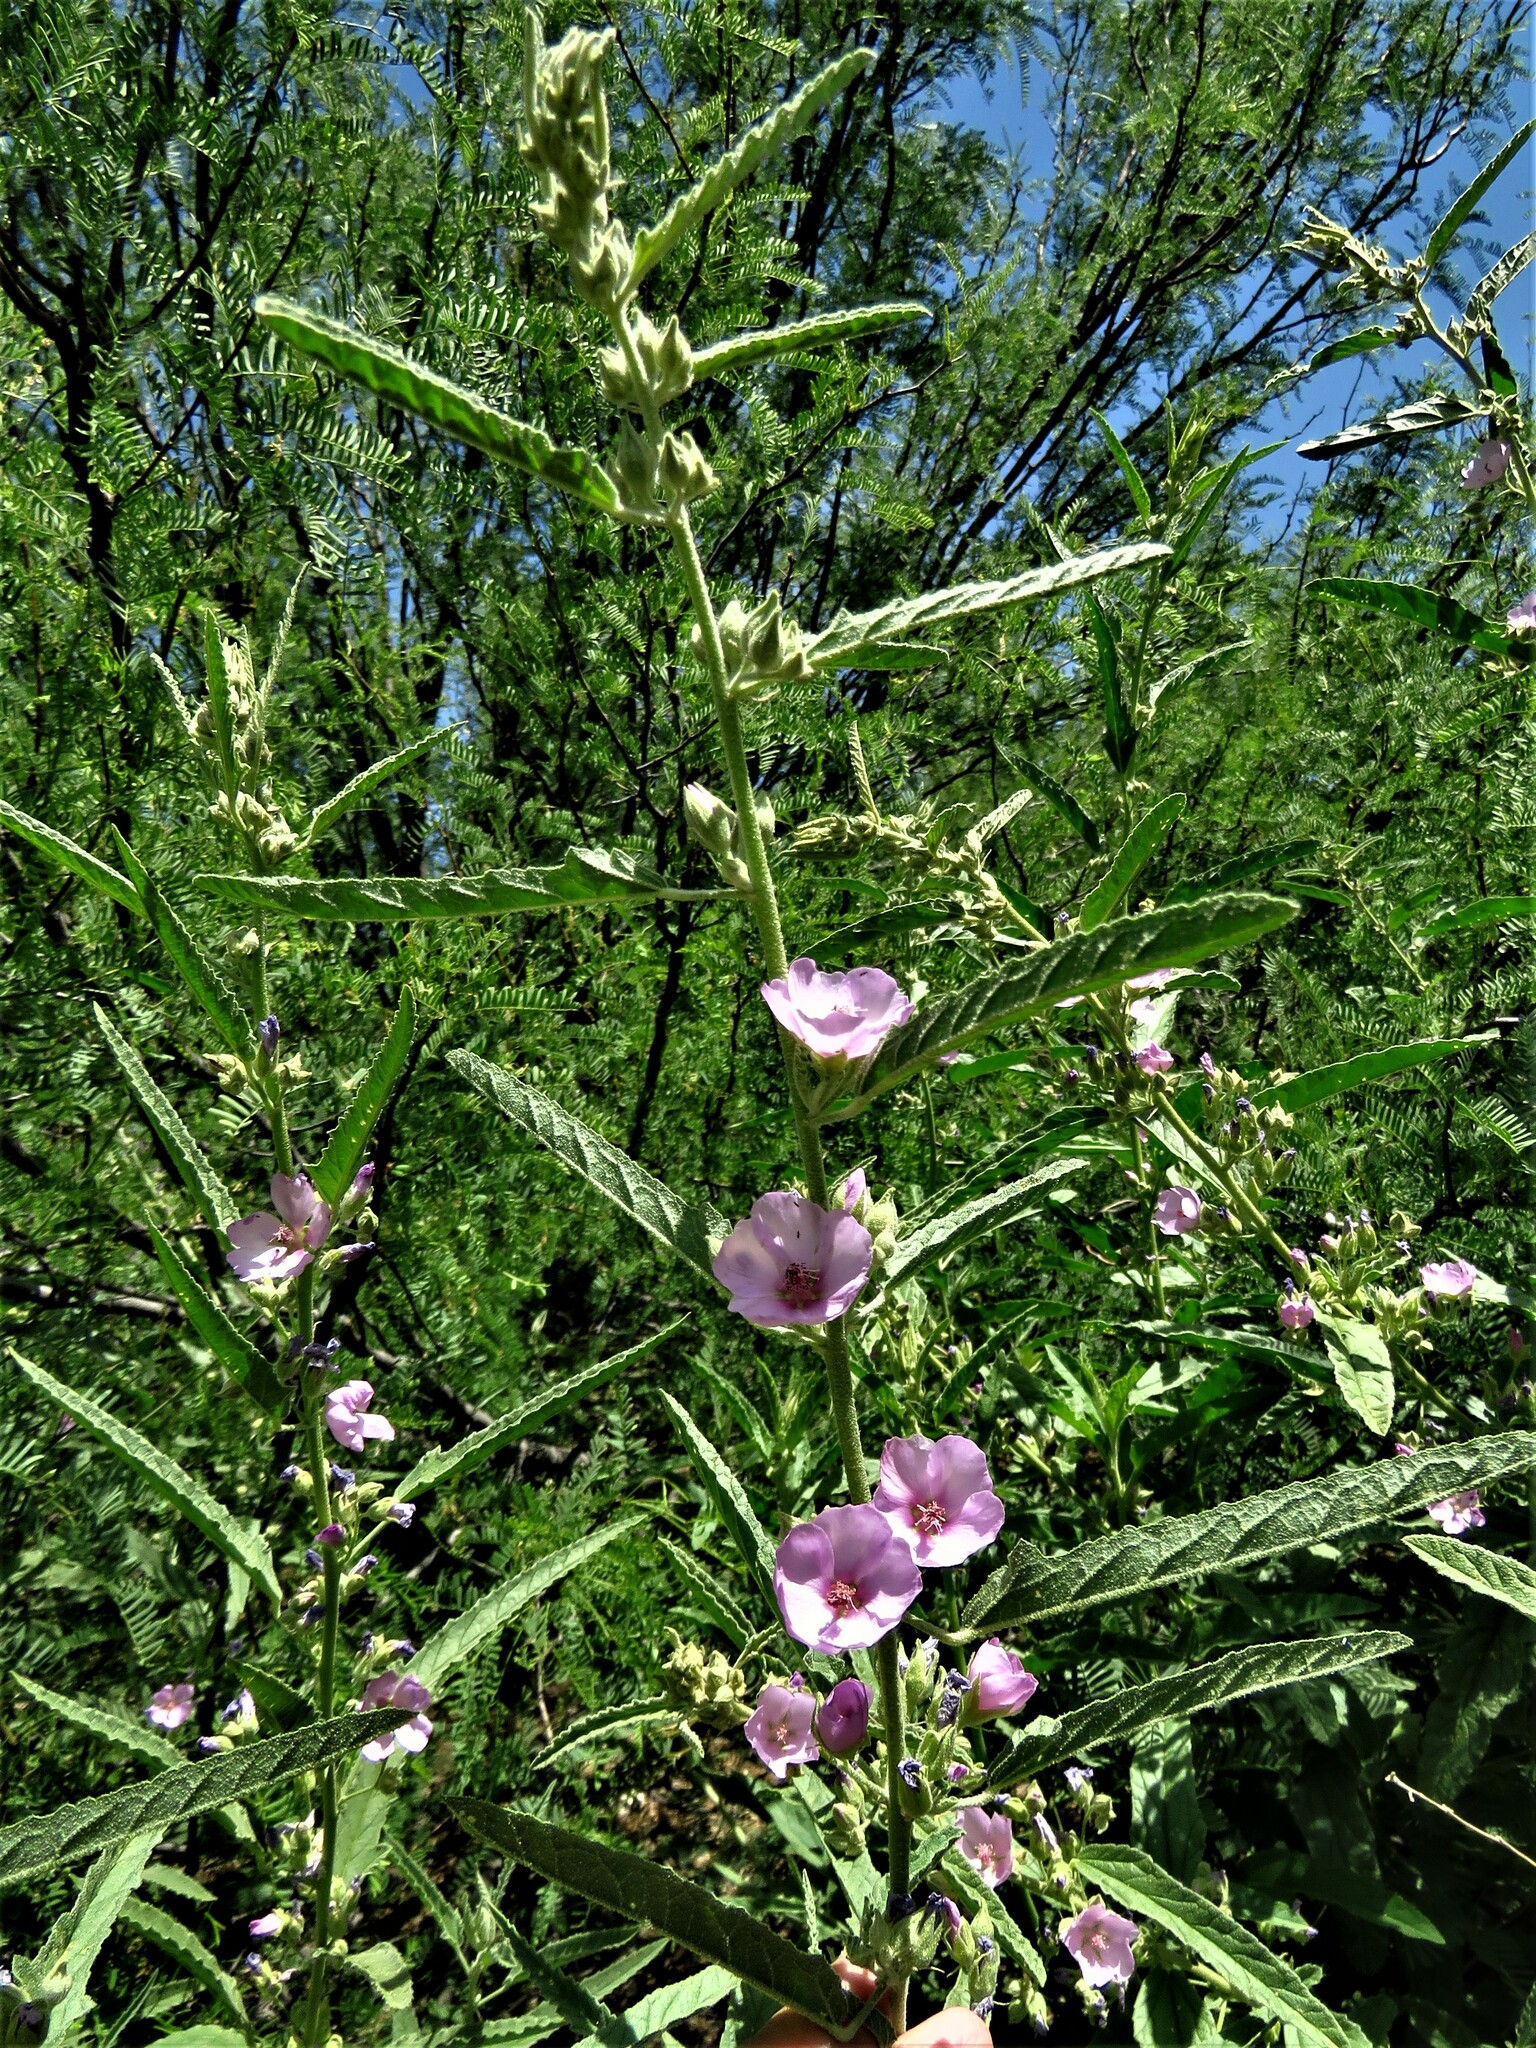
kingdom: Plantae
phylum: Tracheophyta
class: Magnoliopsida
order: Malvales
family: Malvaceae
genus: Sphaeralcea
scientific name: Sphaeralcea angustifolia
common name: Copper globe-mallow
